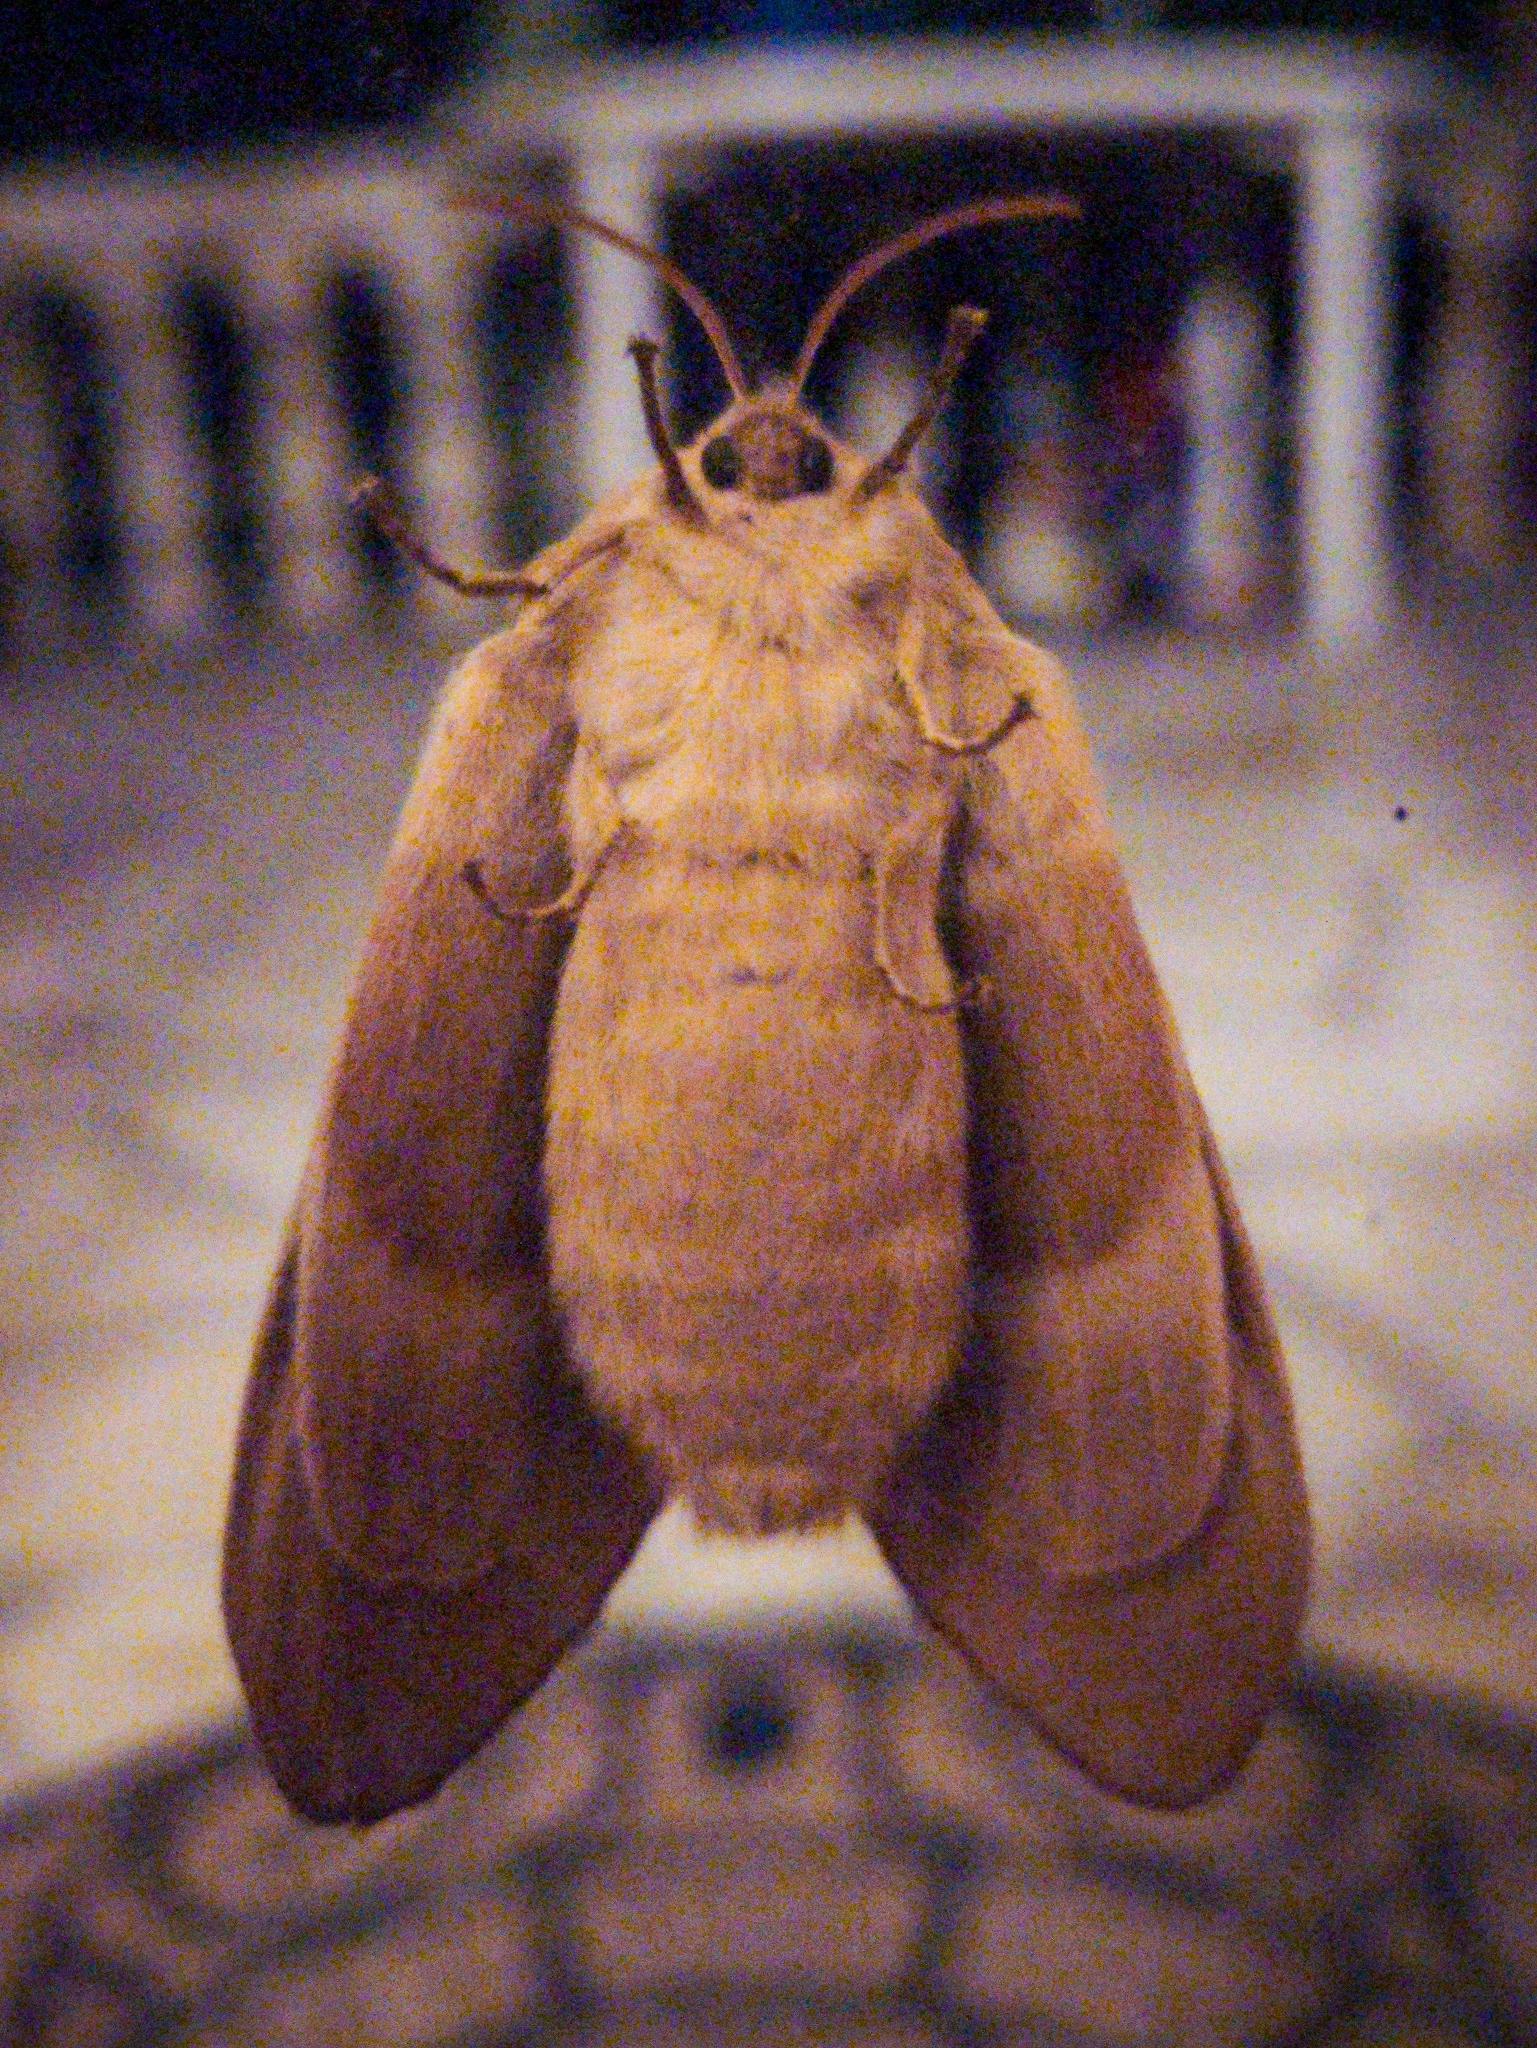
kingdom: Animalia
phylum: Arthropoda
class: Insecta
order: Lepidoptera
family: Lasiocampidae
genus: Lasiocampa
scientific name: Lasiocampa quercus
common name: Oak eggar
